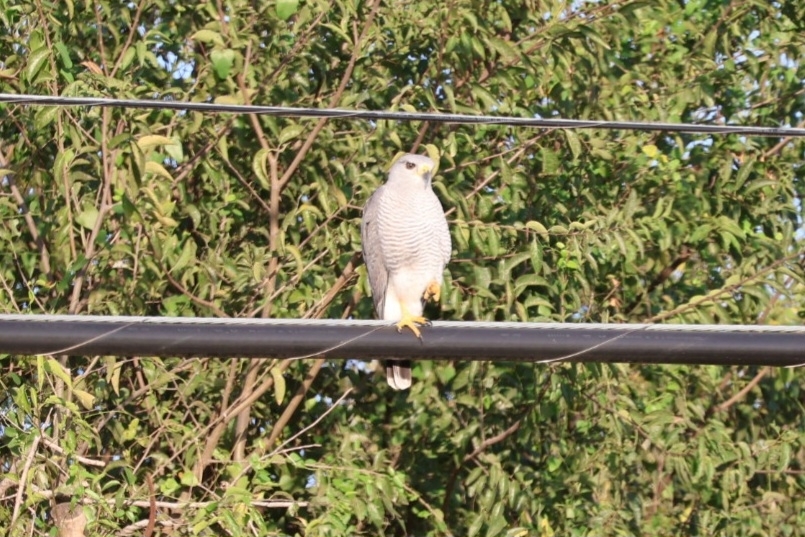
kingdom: Animalia
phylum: Chordata
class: Aves
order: Accipitriformes
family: Accipitridae
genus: Buteo
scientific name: Buteo nitidus
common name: Grey-lined hawk
